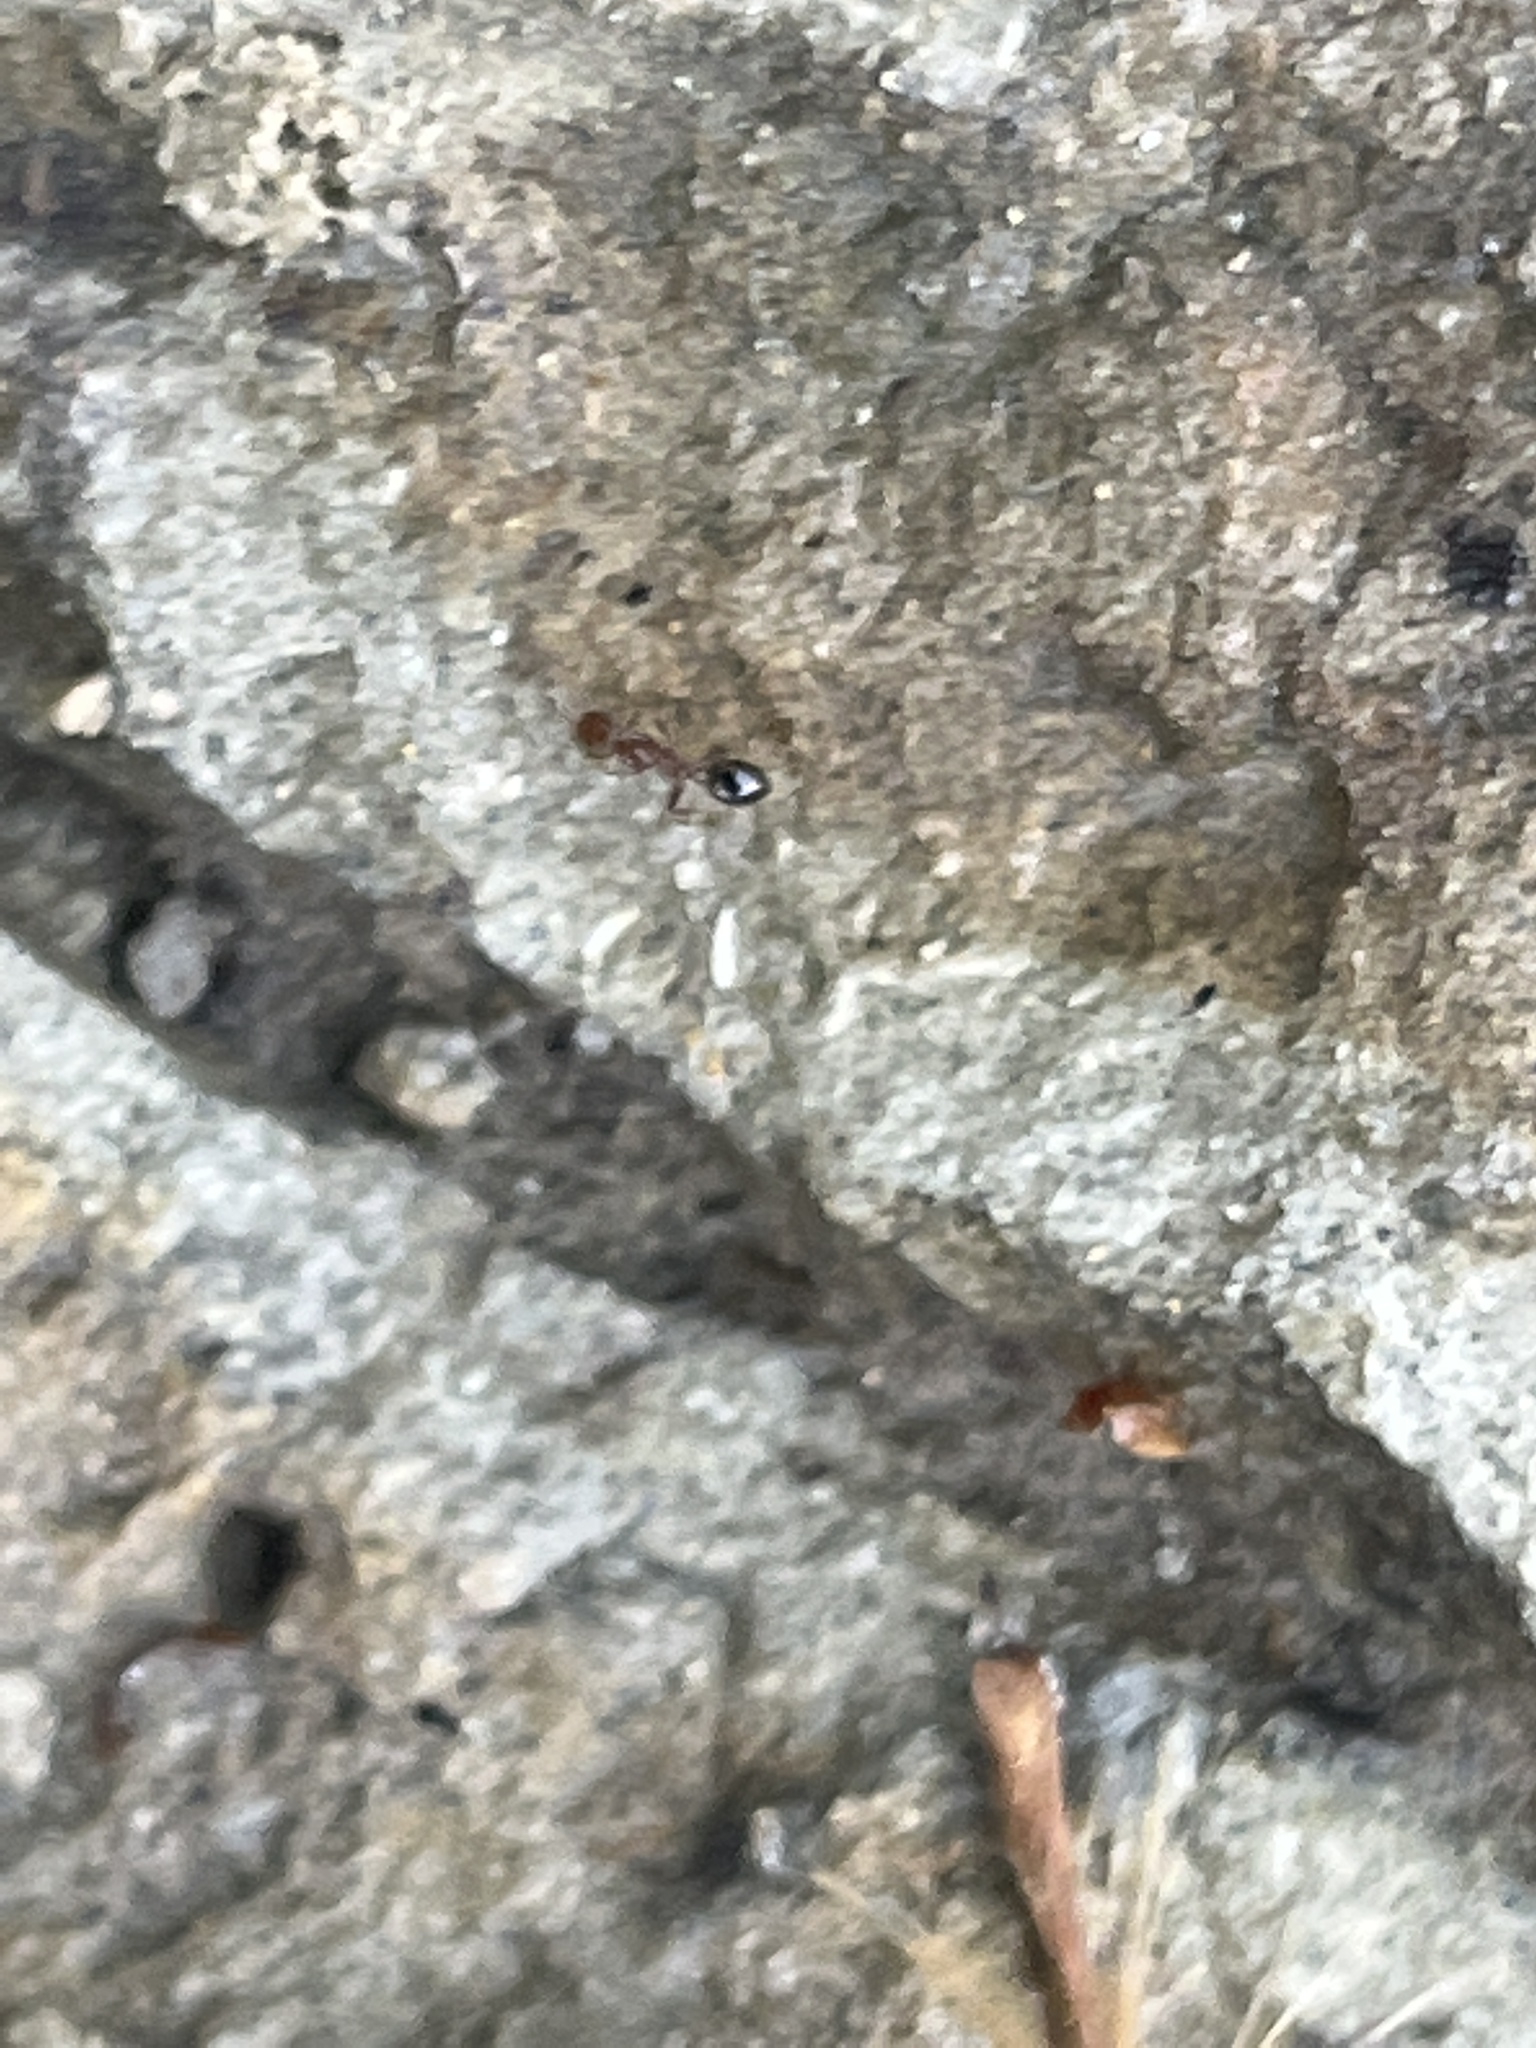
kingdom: Animalia
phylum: Arthropoda
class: Insecta
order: Hymenoptera
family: Formicidae
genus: Solenopsis
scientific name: Solenopsis invicta
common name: Red imported fire ant
